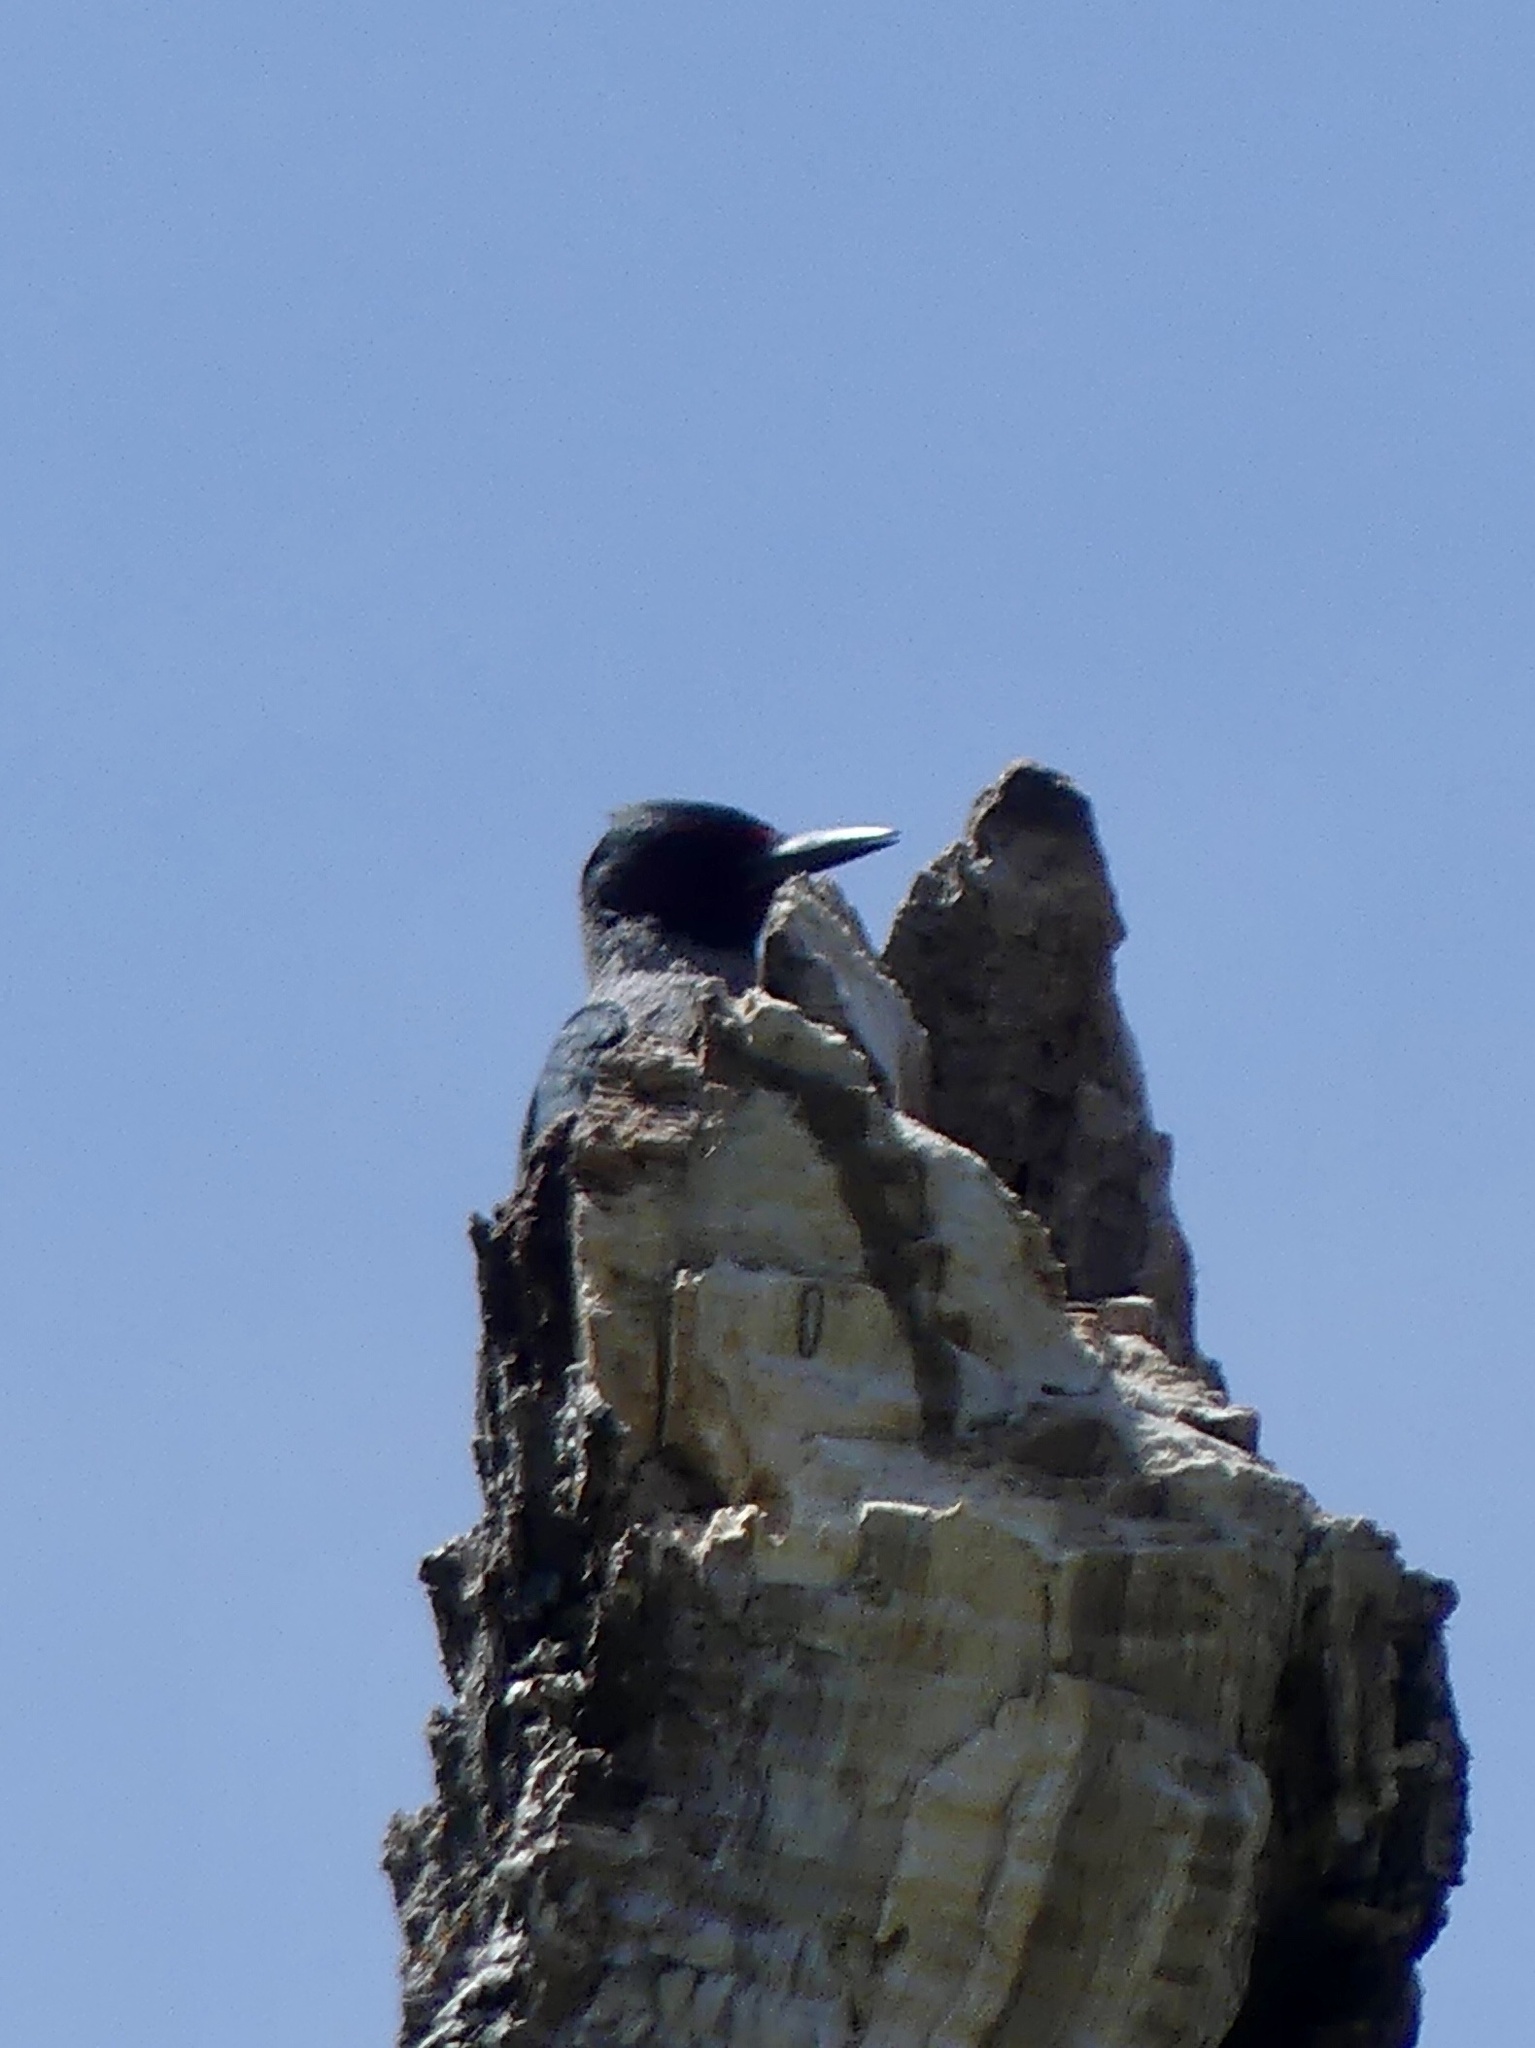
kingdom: Animalia
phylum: Chordata
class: Aves
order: Piciformes
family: Picidae
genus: Melanerpes
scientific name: Melanerpes lewis
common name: Lewis's woodpecker
